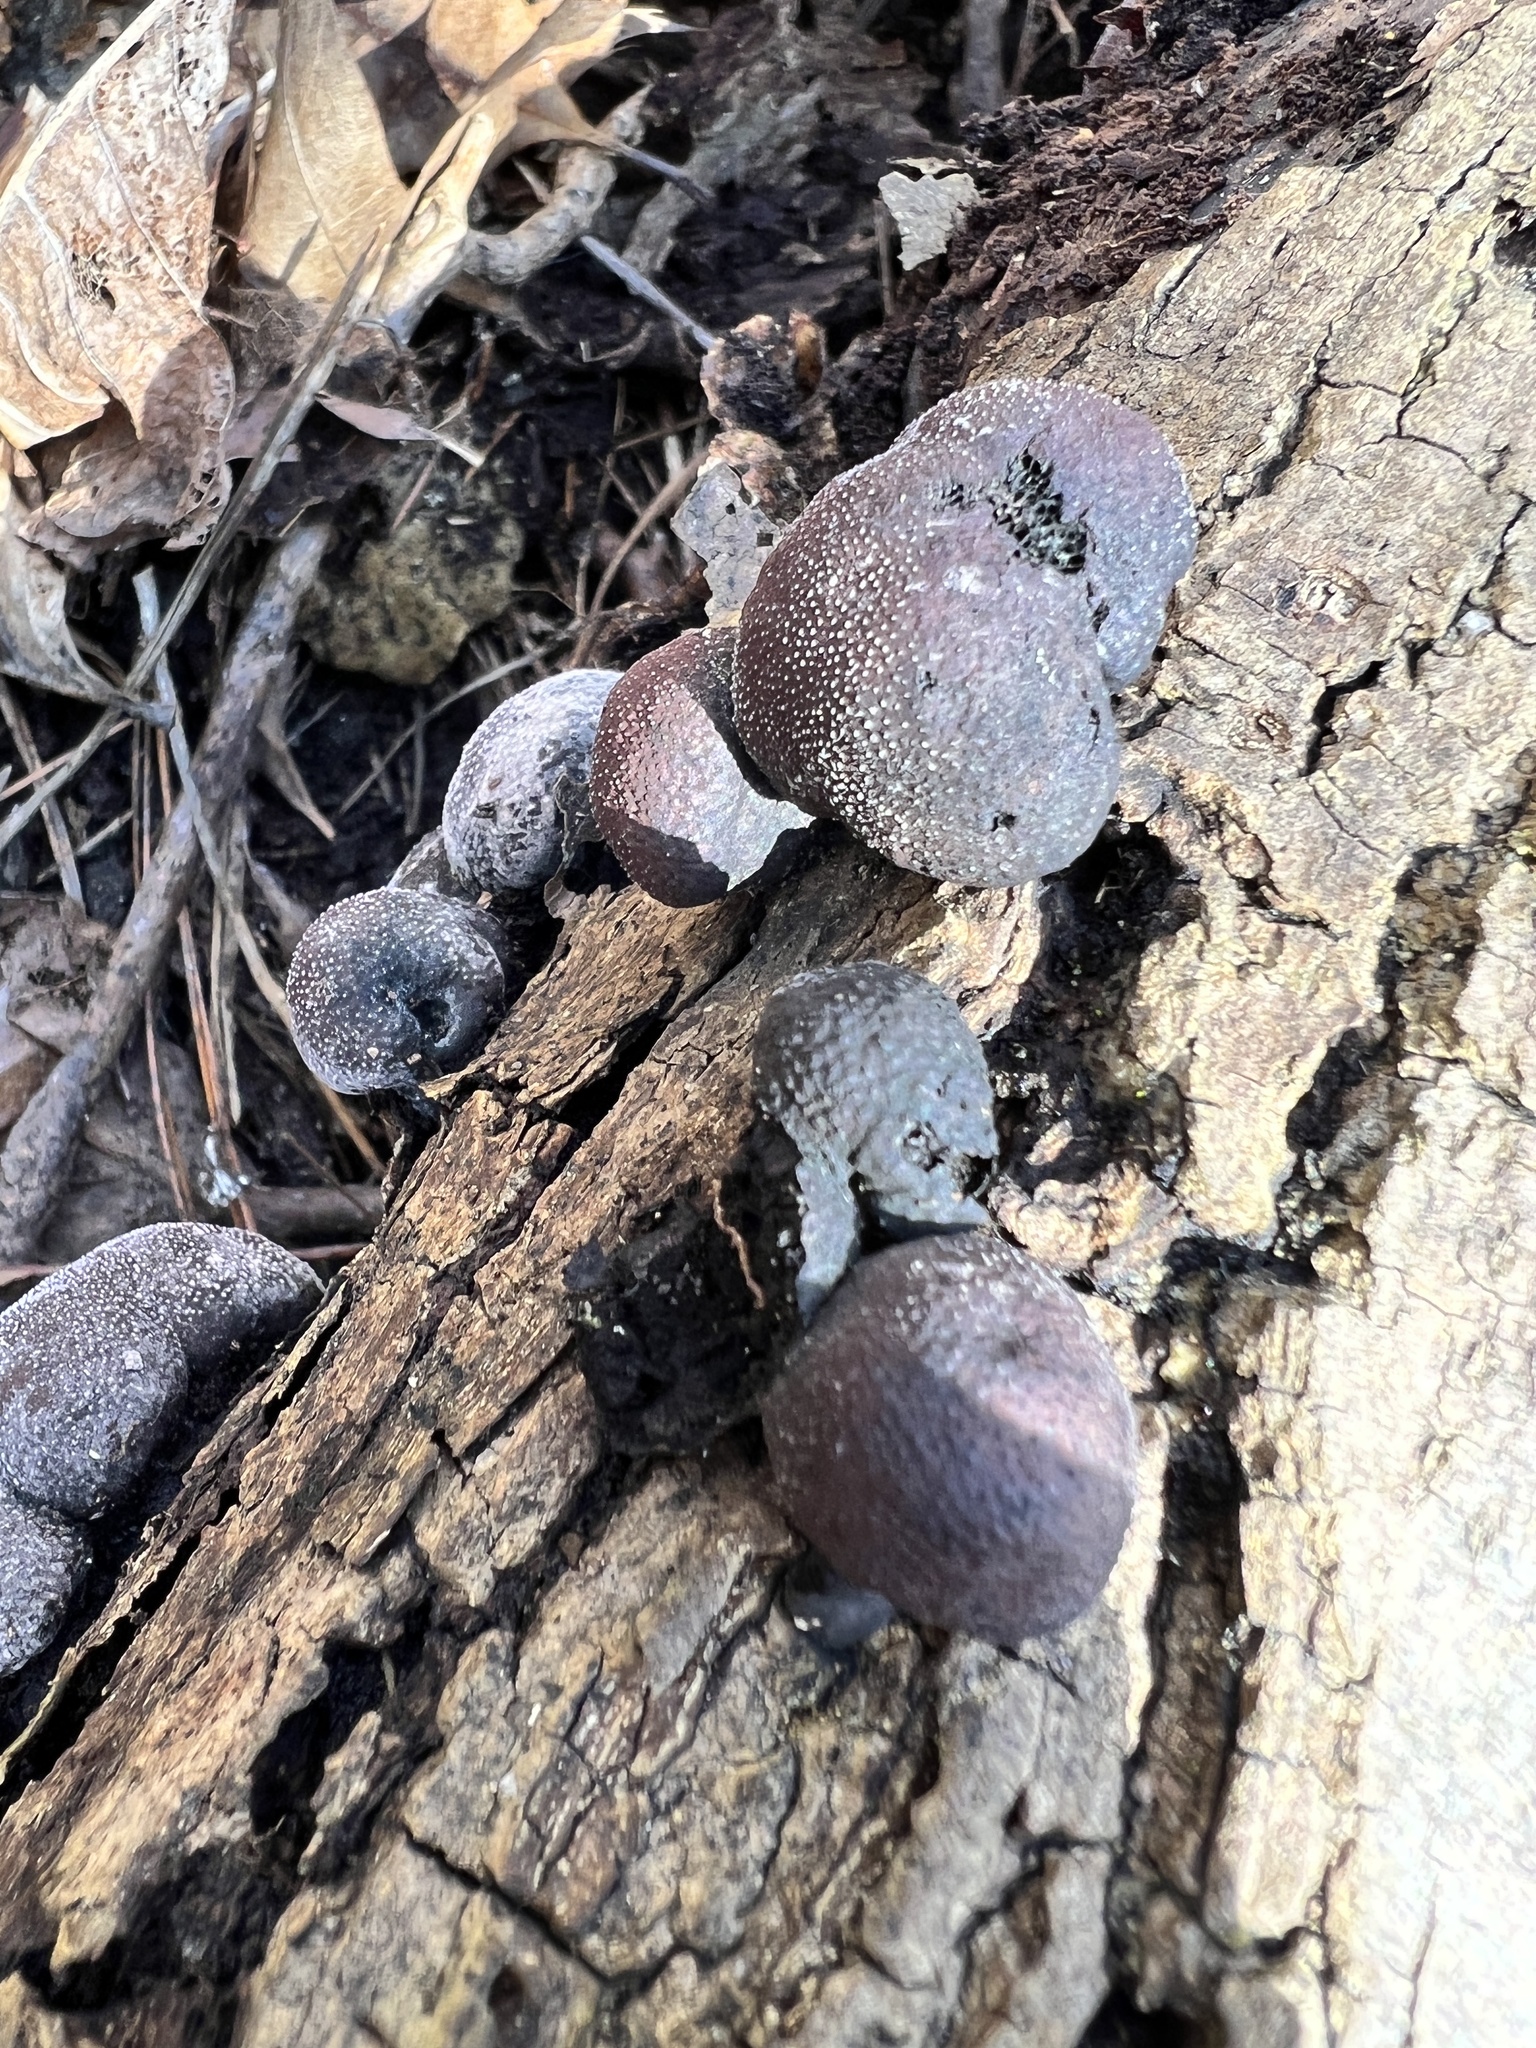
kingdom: Fungi
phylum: Ascomycota
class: Sordariomycetes
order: Xylariales
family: Hypoxylaceae
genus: Daldinia
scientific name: Daldinia childiae
